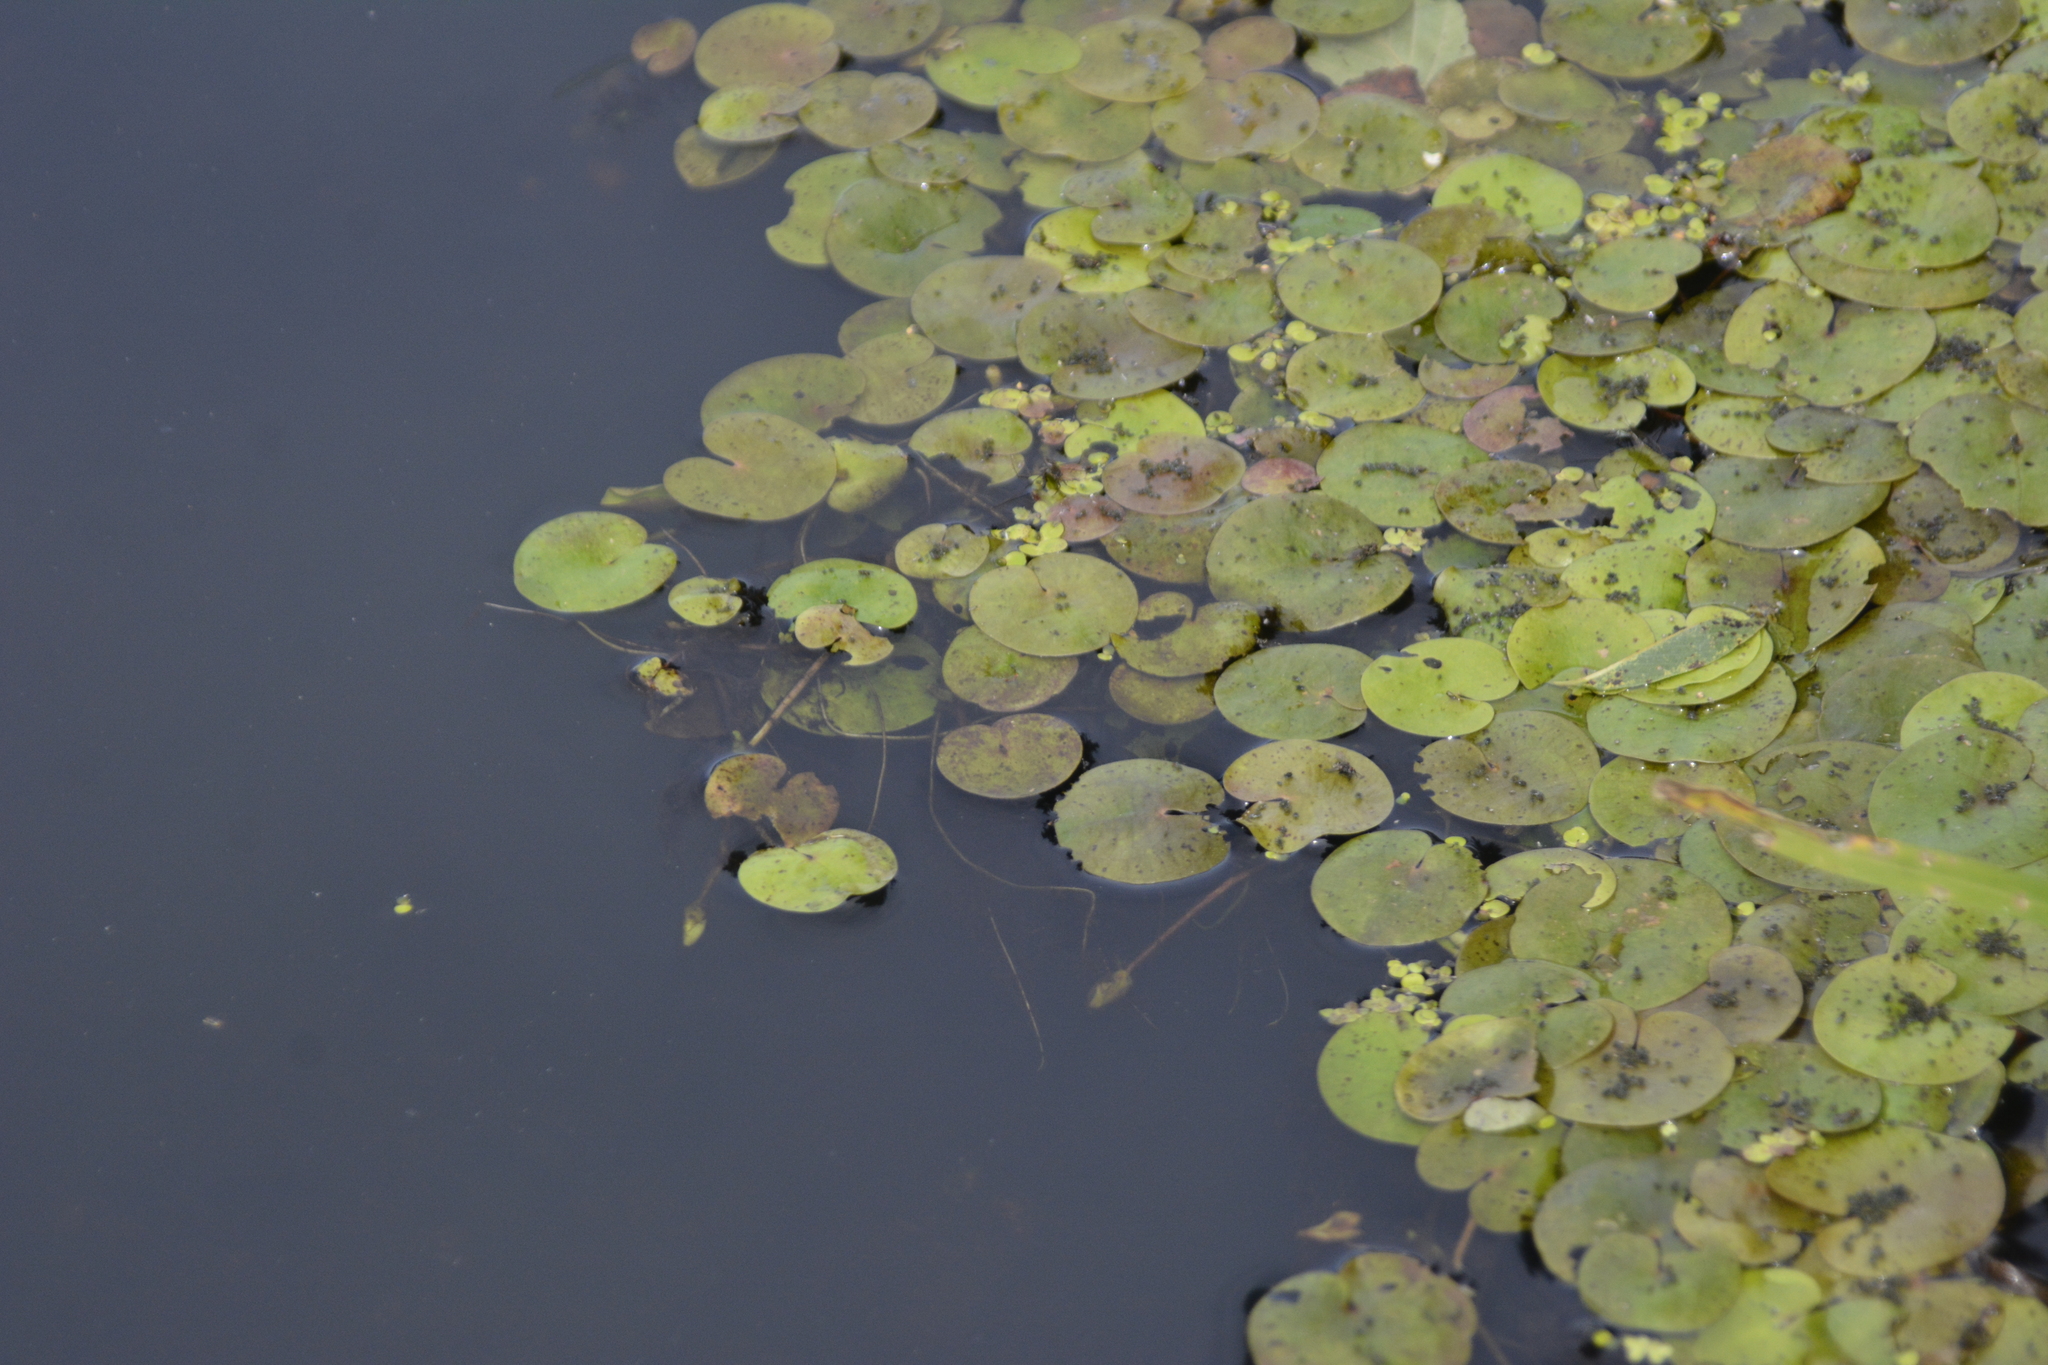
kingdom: Plantae
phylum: Tracheophyta
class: Liliopsida
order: Alismatales
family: Hydrocharitaceae
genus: Hydrocharis
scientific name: Hydrocharis morsus-ranae
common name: Frogbit
